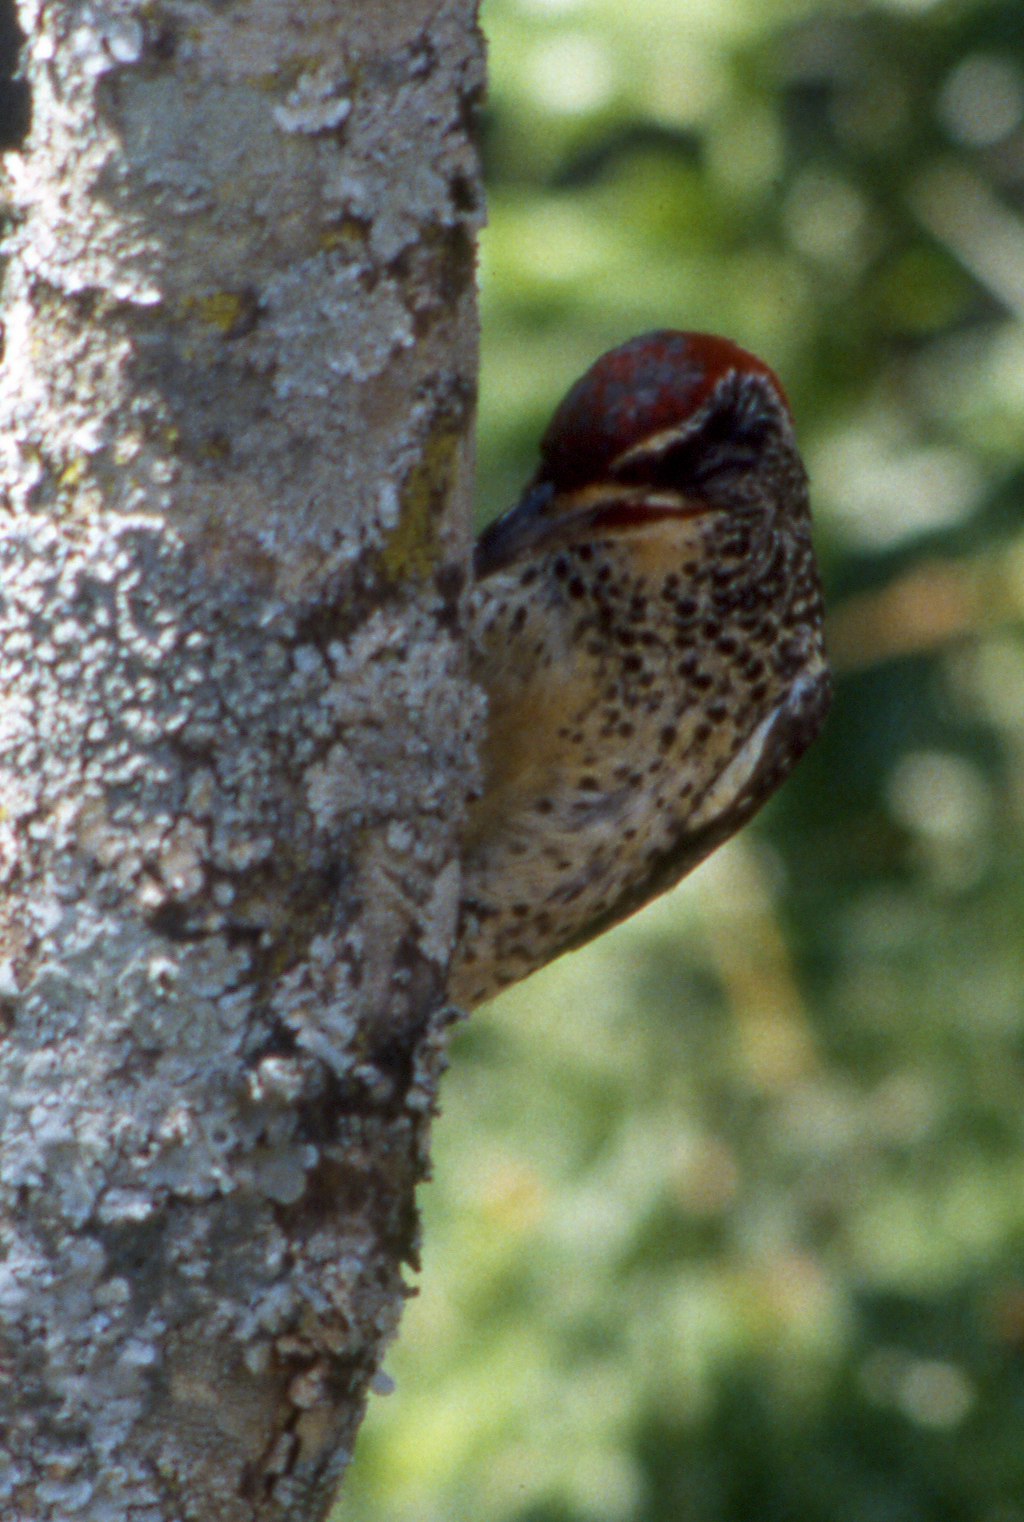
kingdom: Animalia
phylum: Chordata
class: Aves
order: Piciformes
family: Picidae
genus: Campethera
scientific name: Campethera nubica
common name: Nubian woodpecker
